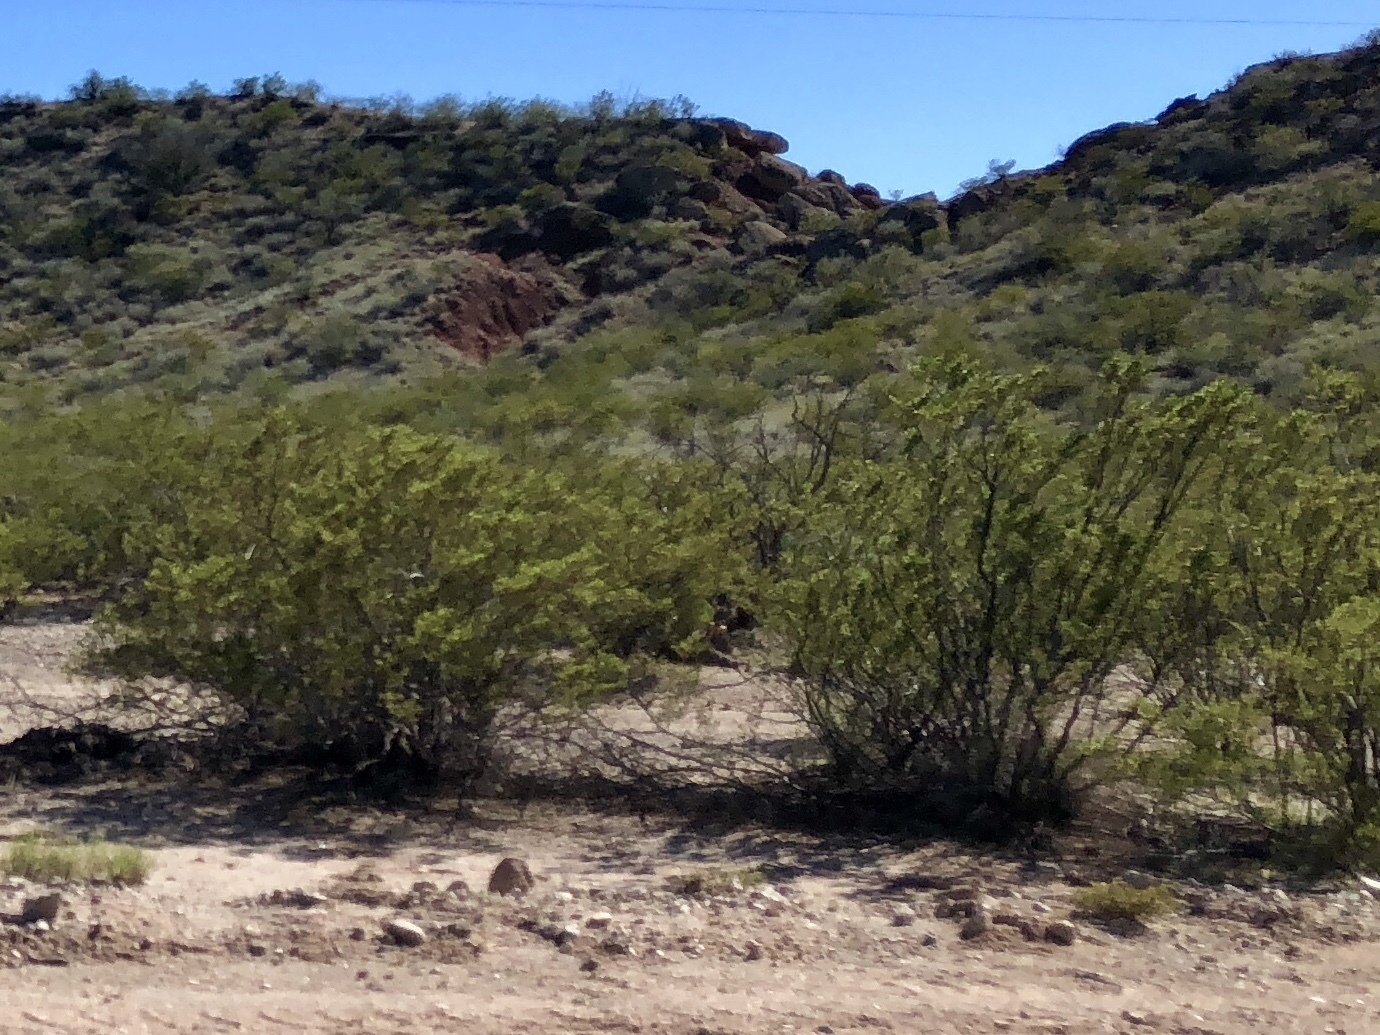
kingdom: Plantae
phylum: Tracheophyta
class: Magnoliopsida
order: Zygophyllales
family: Zygophyllaceae
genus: Larrea
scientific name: Larrea tridentata
